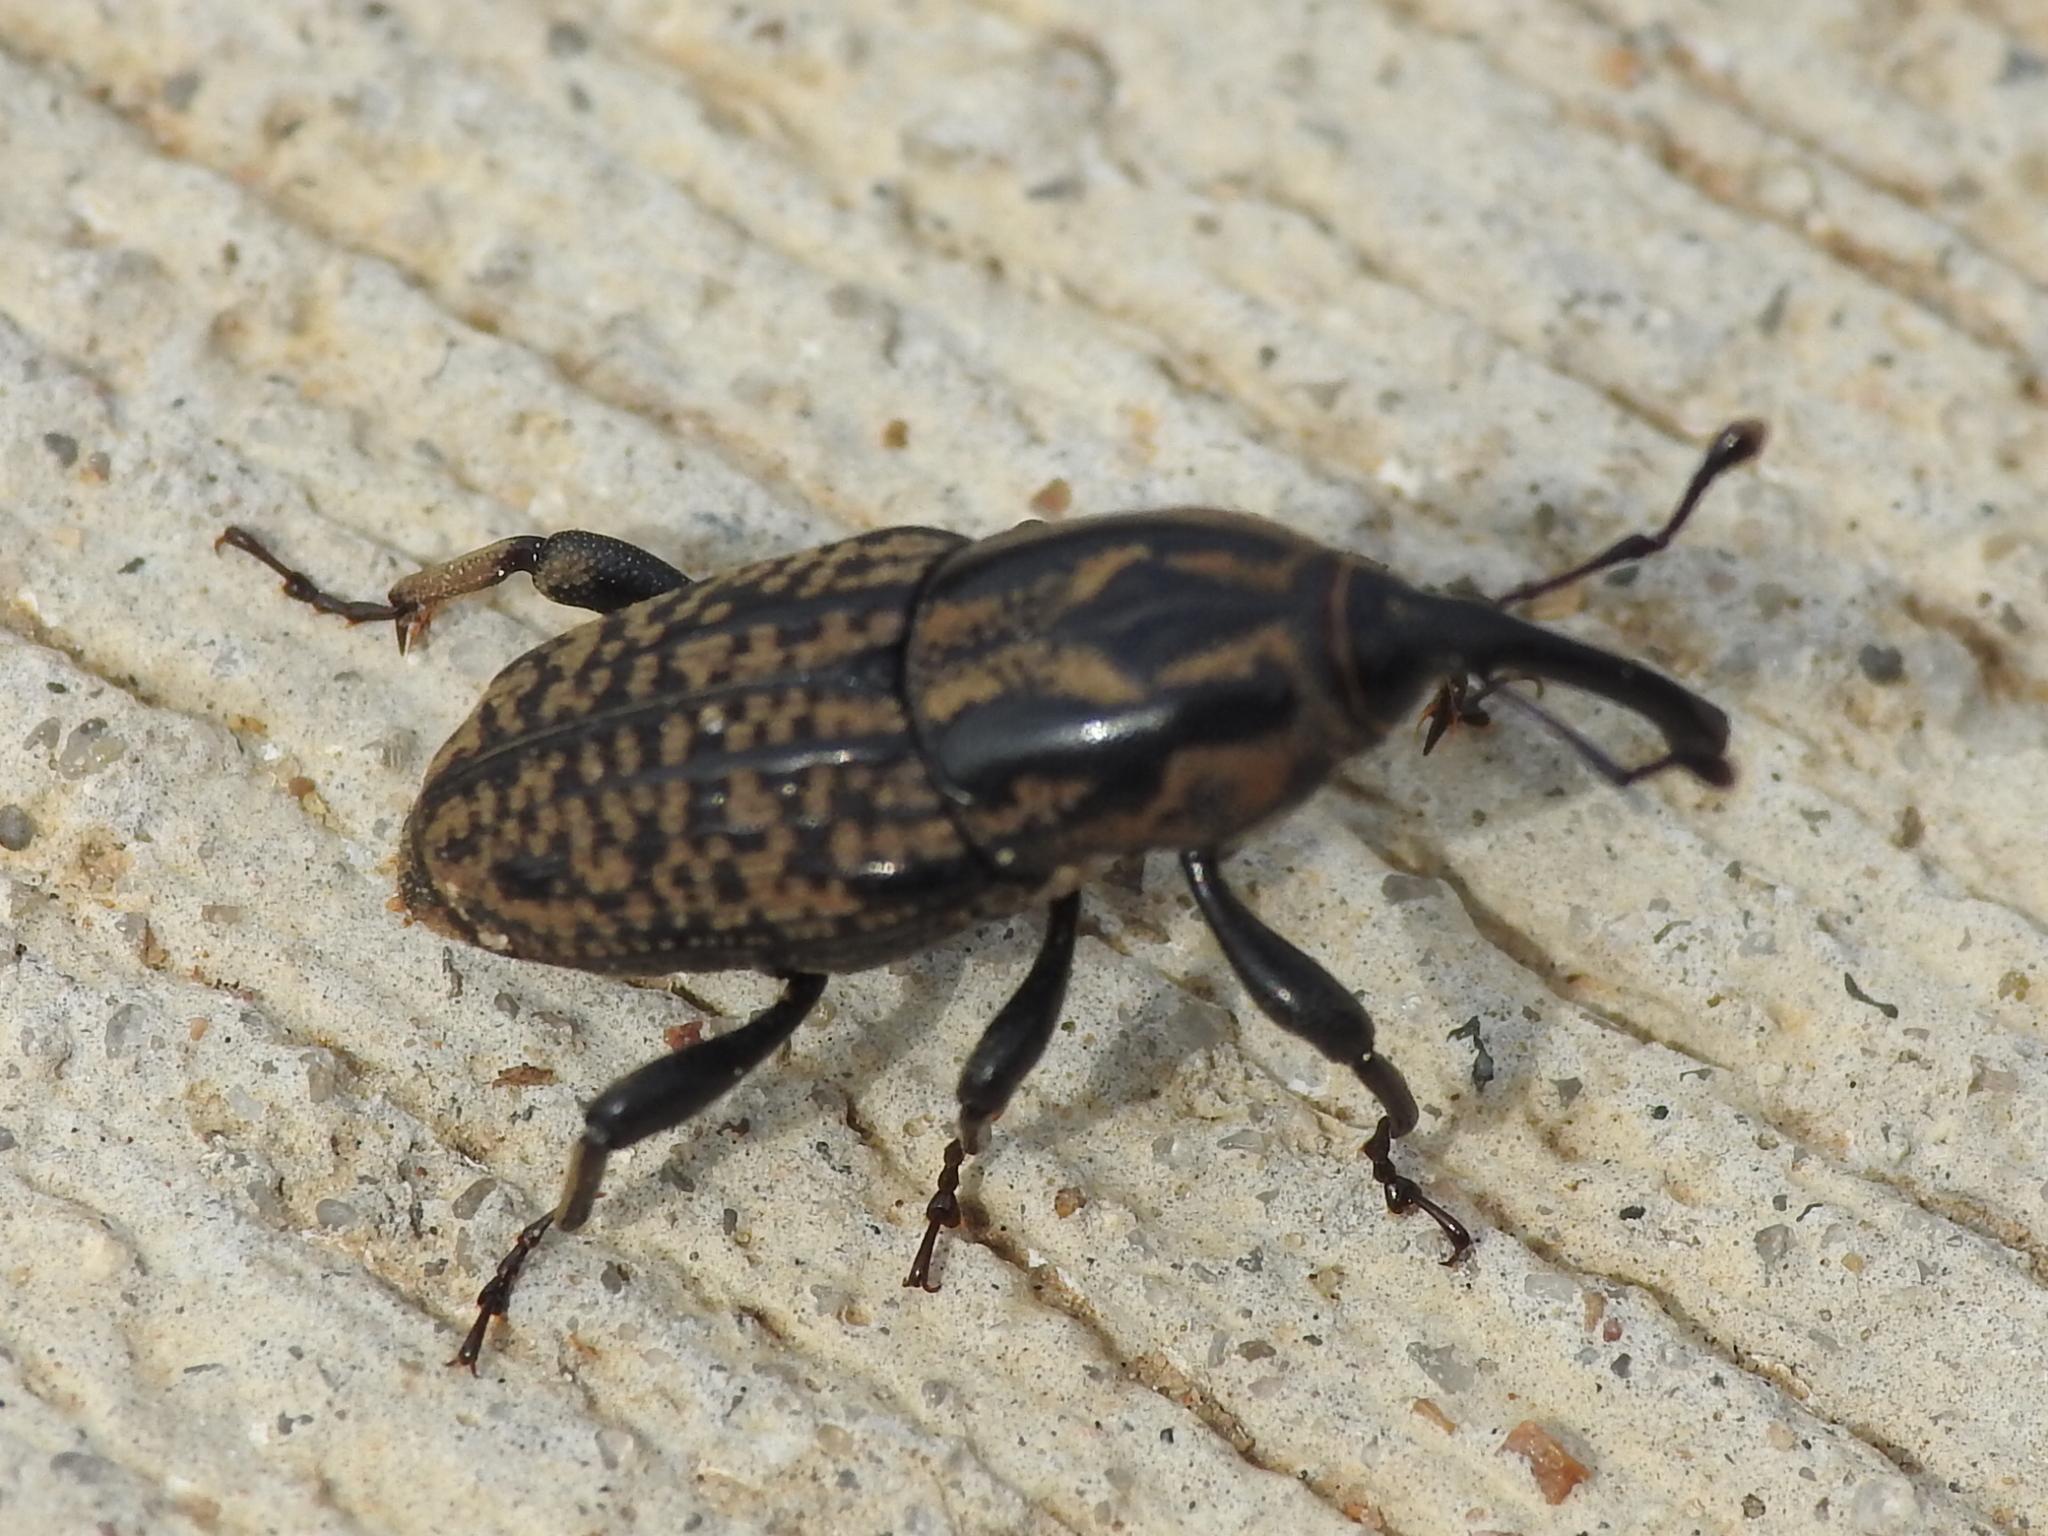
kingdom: Animalia
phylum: Arthropoda
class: Insecta
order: Coleoptera
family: Dryophthoridae
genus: Sphenophorus
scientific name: Sphenophorus cariosus
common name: Weevil
